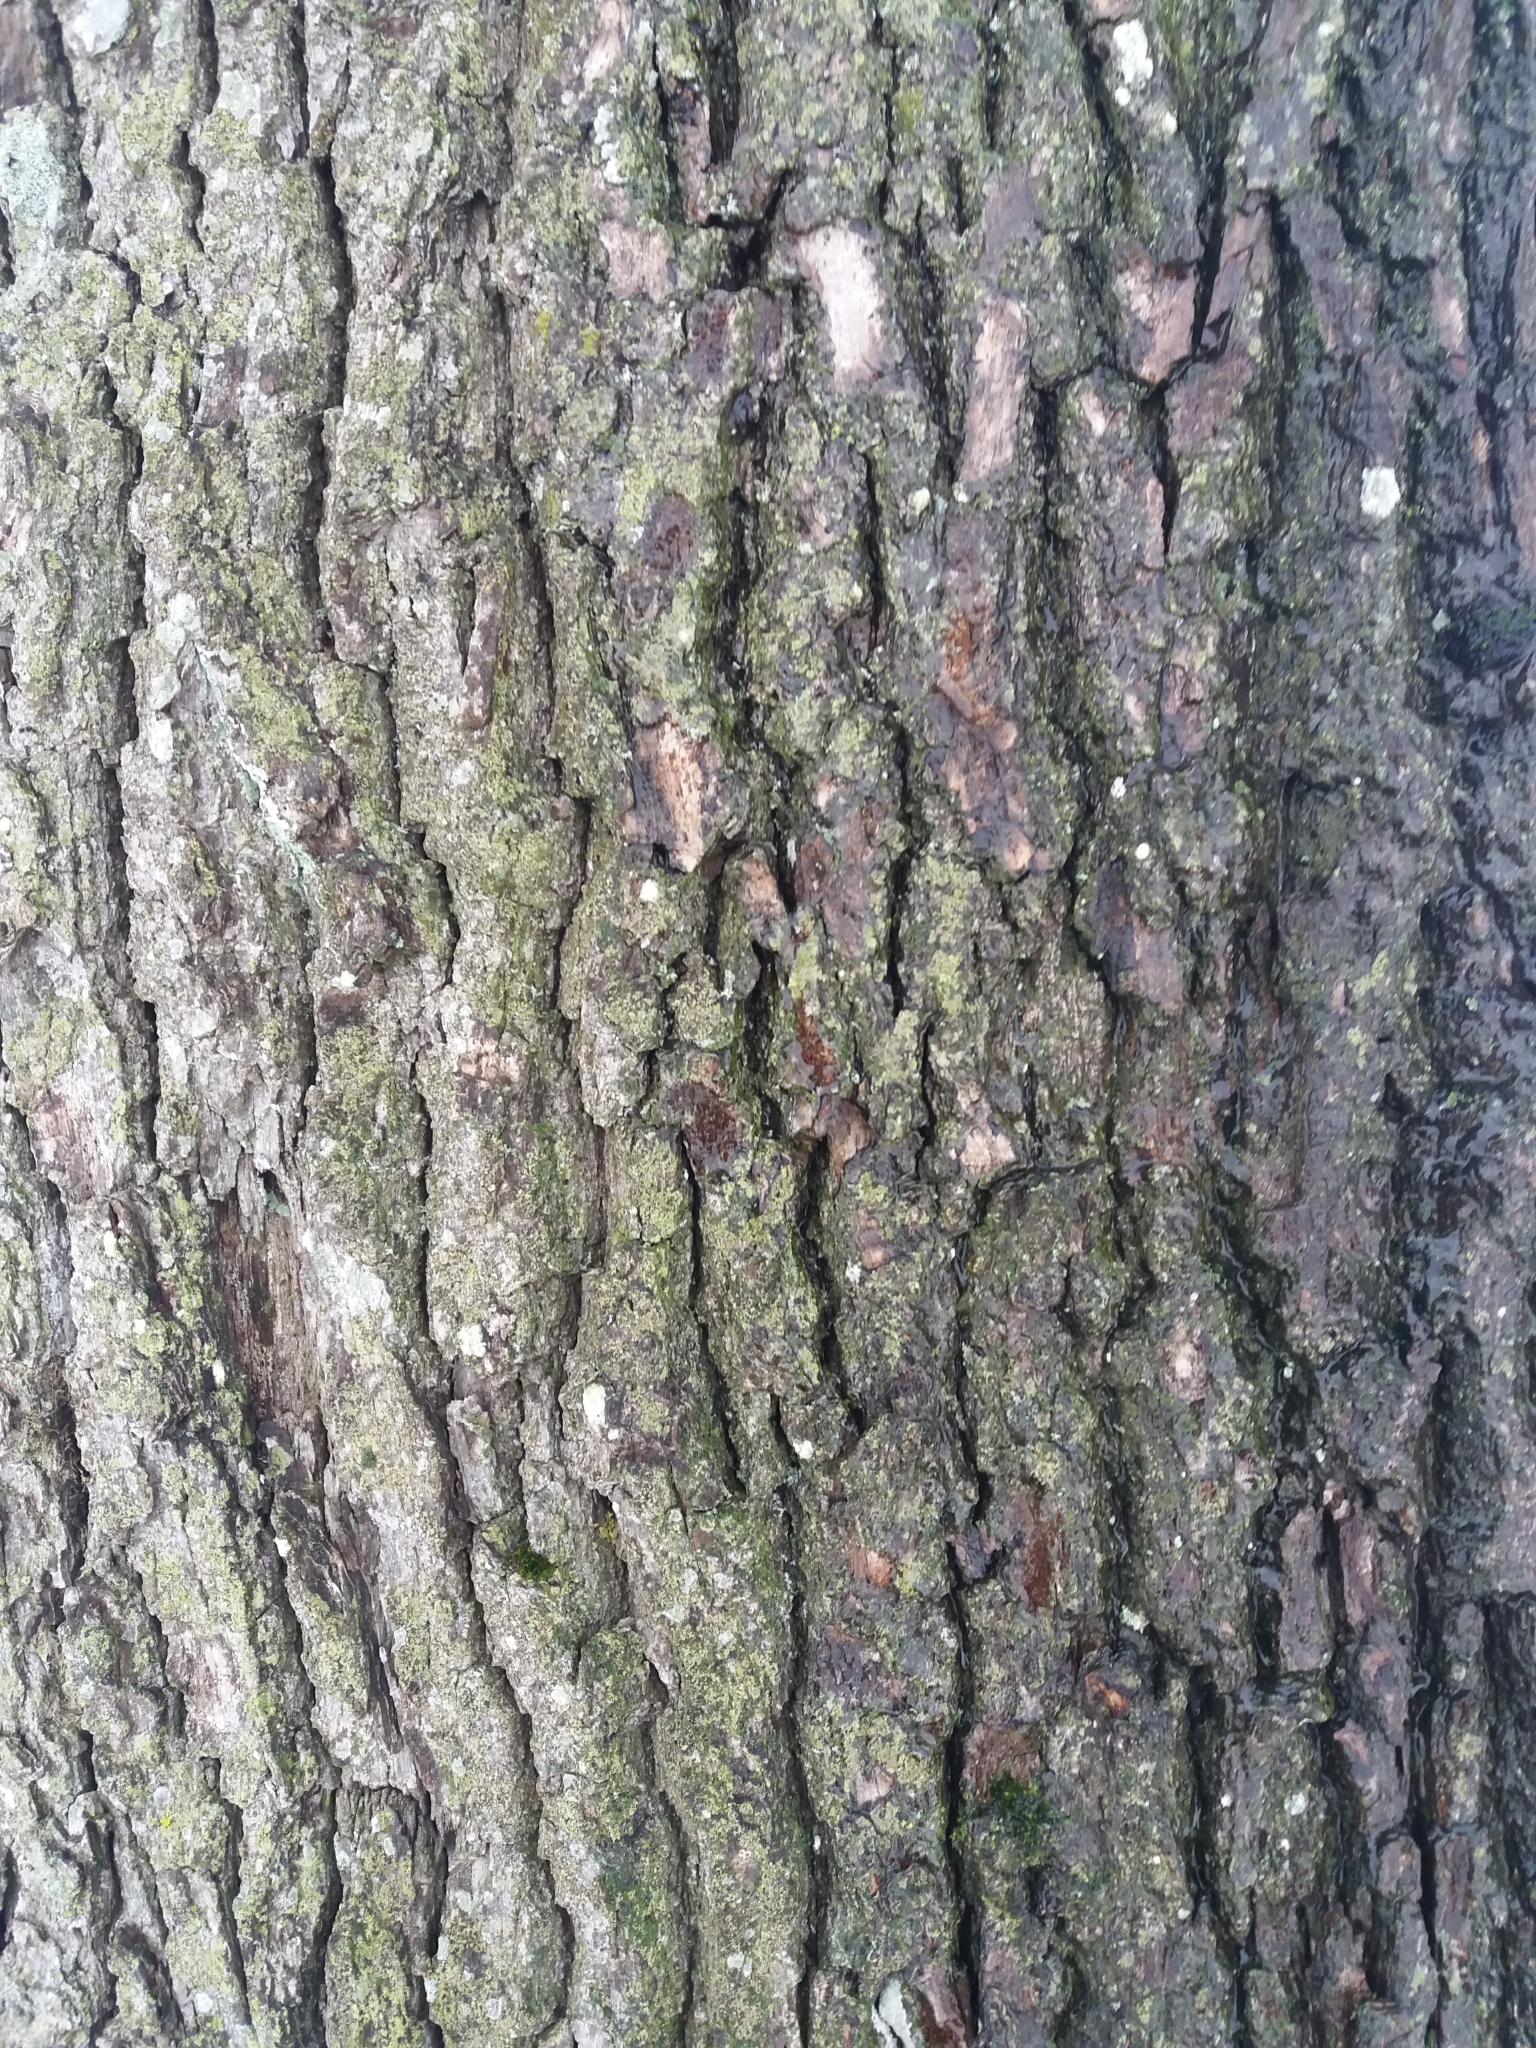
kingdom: Plantae
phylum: Tracheophyta
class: Magnoliopsida
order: Fagales
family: Fagaceae
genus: Quercus
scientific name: Quercus robur
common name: Pedunculate oak
